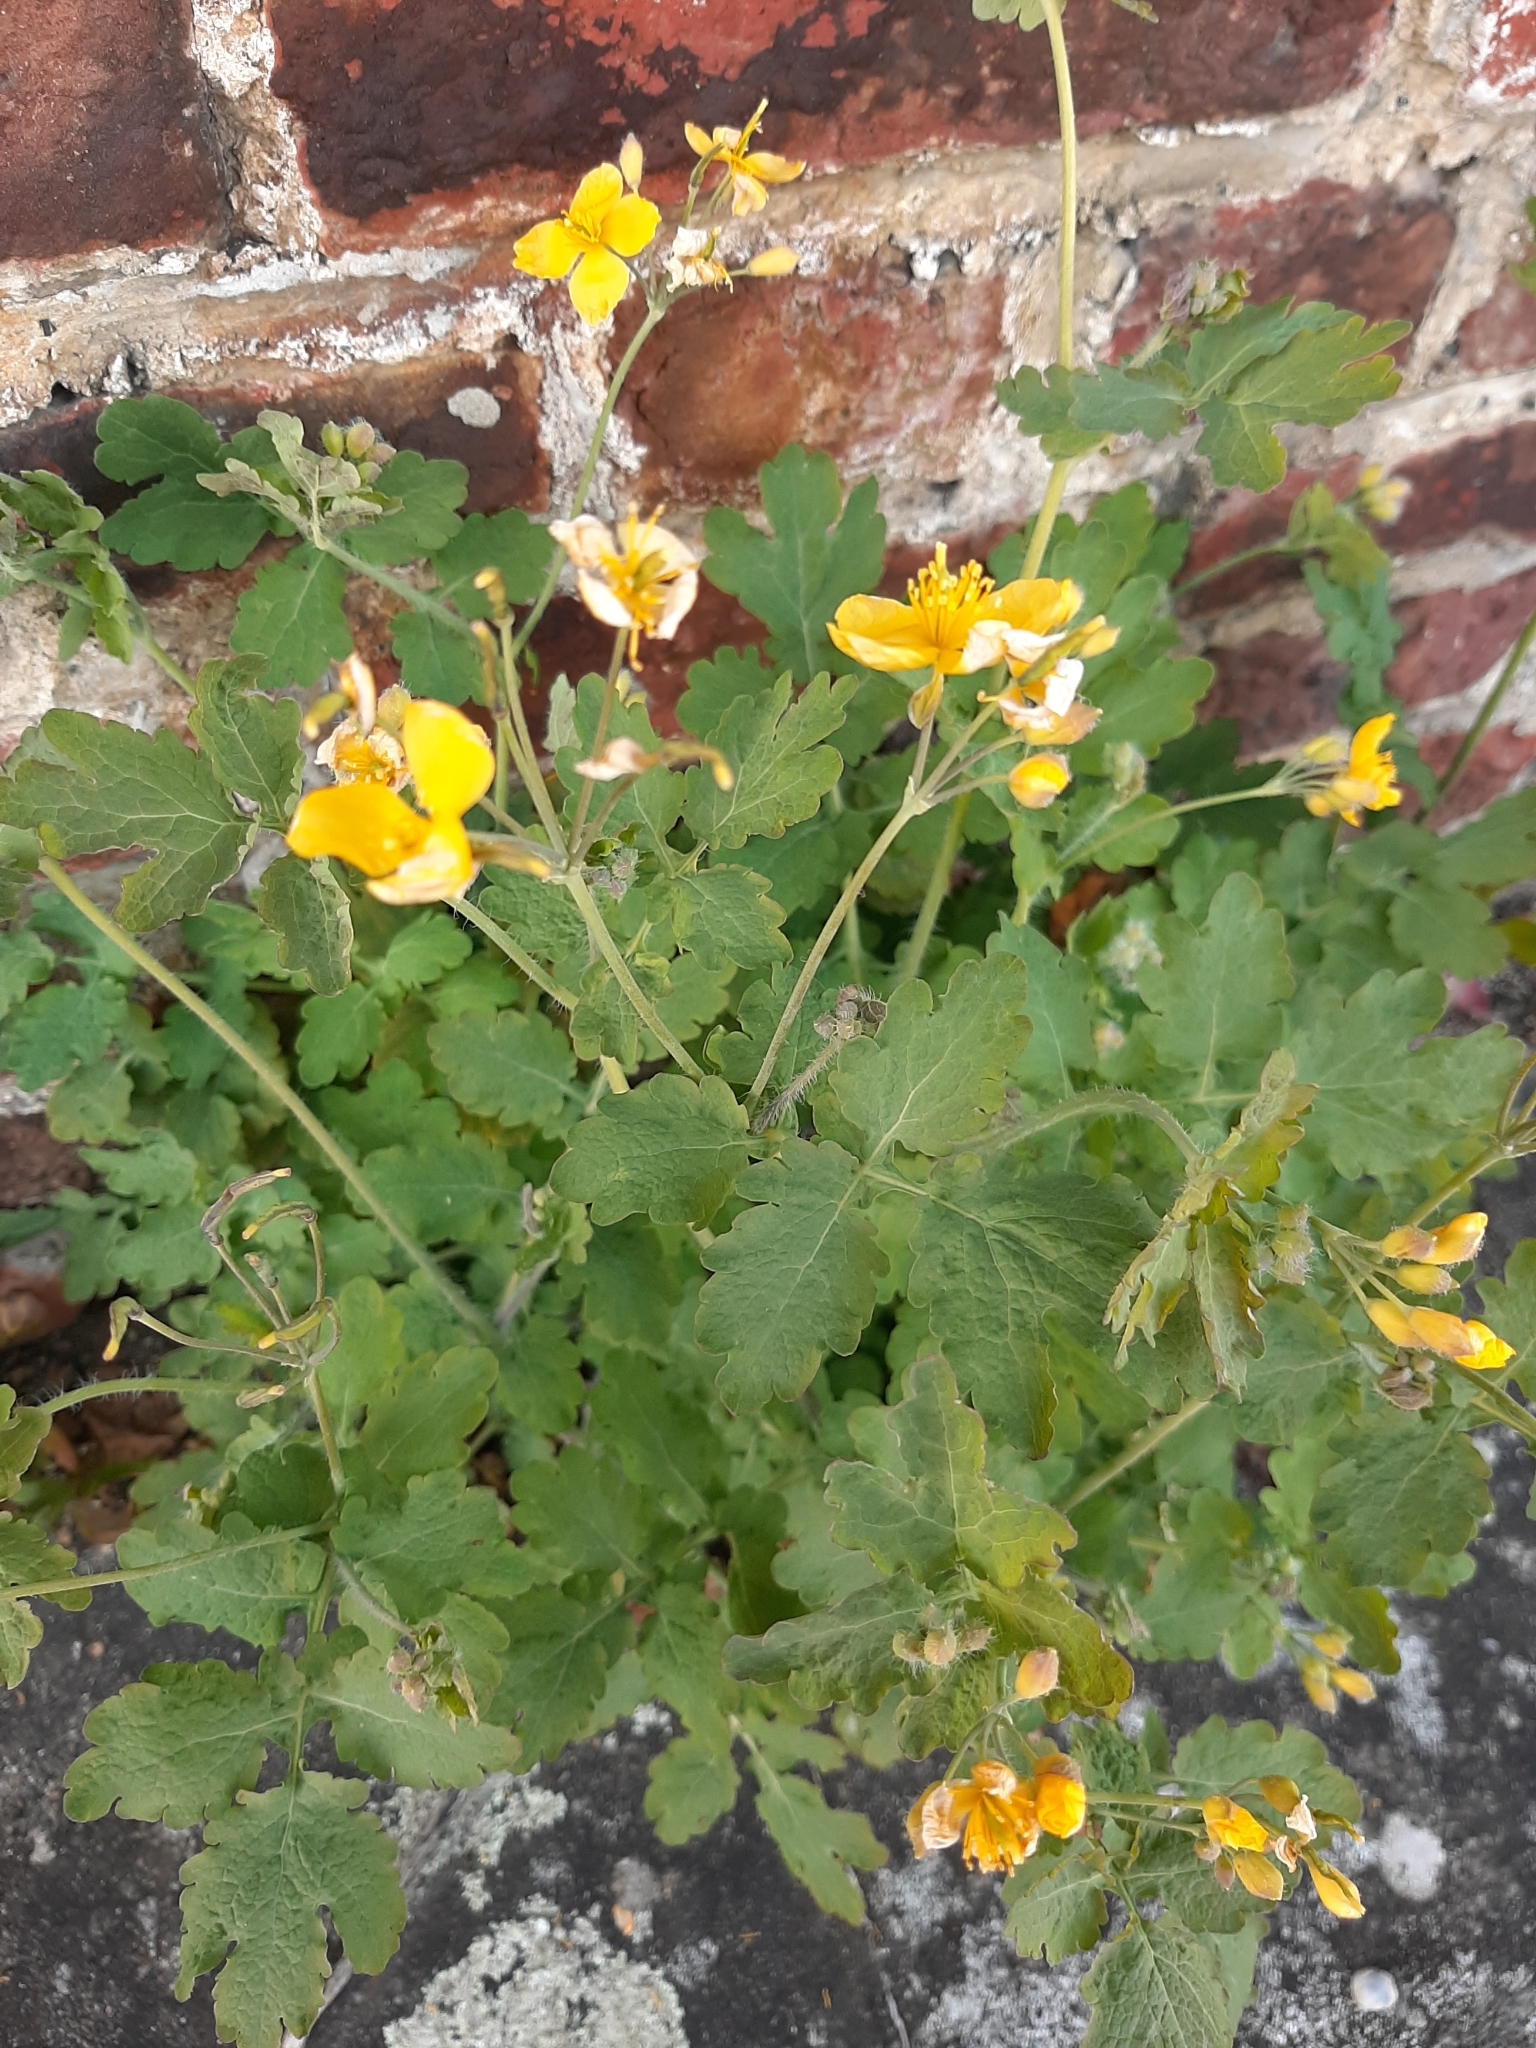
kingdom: Plantae
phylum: Tracheophyta
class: Magnoliopsida
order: Ranunculales
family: Papaveraceae
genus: Chelidonium
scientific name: Chelidonium majus
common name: Greater celandine
